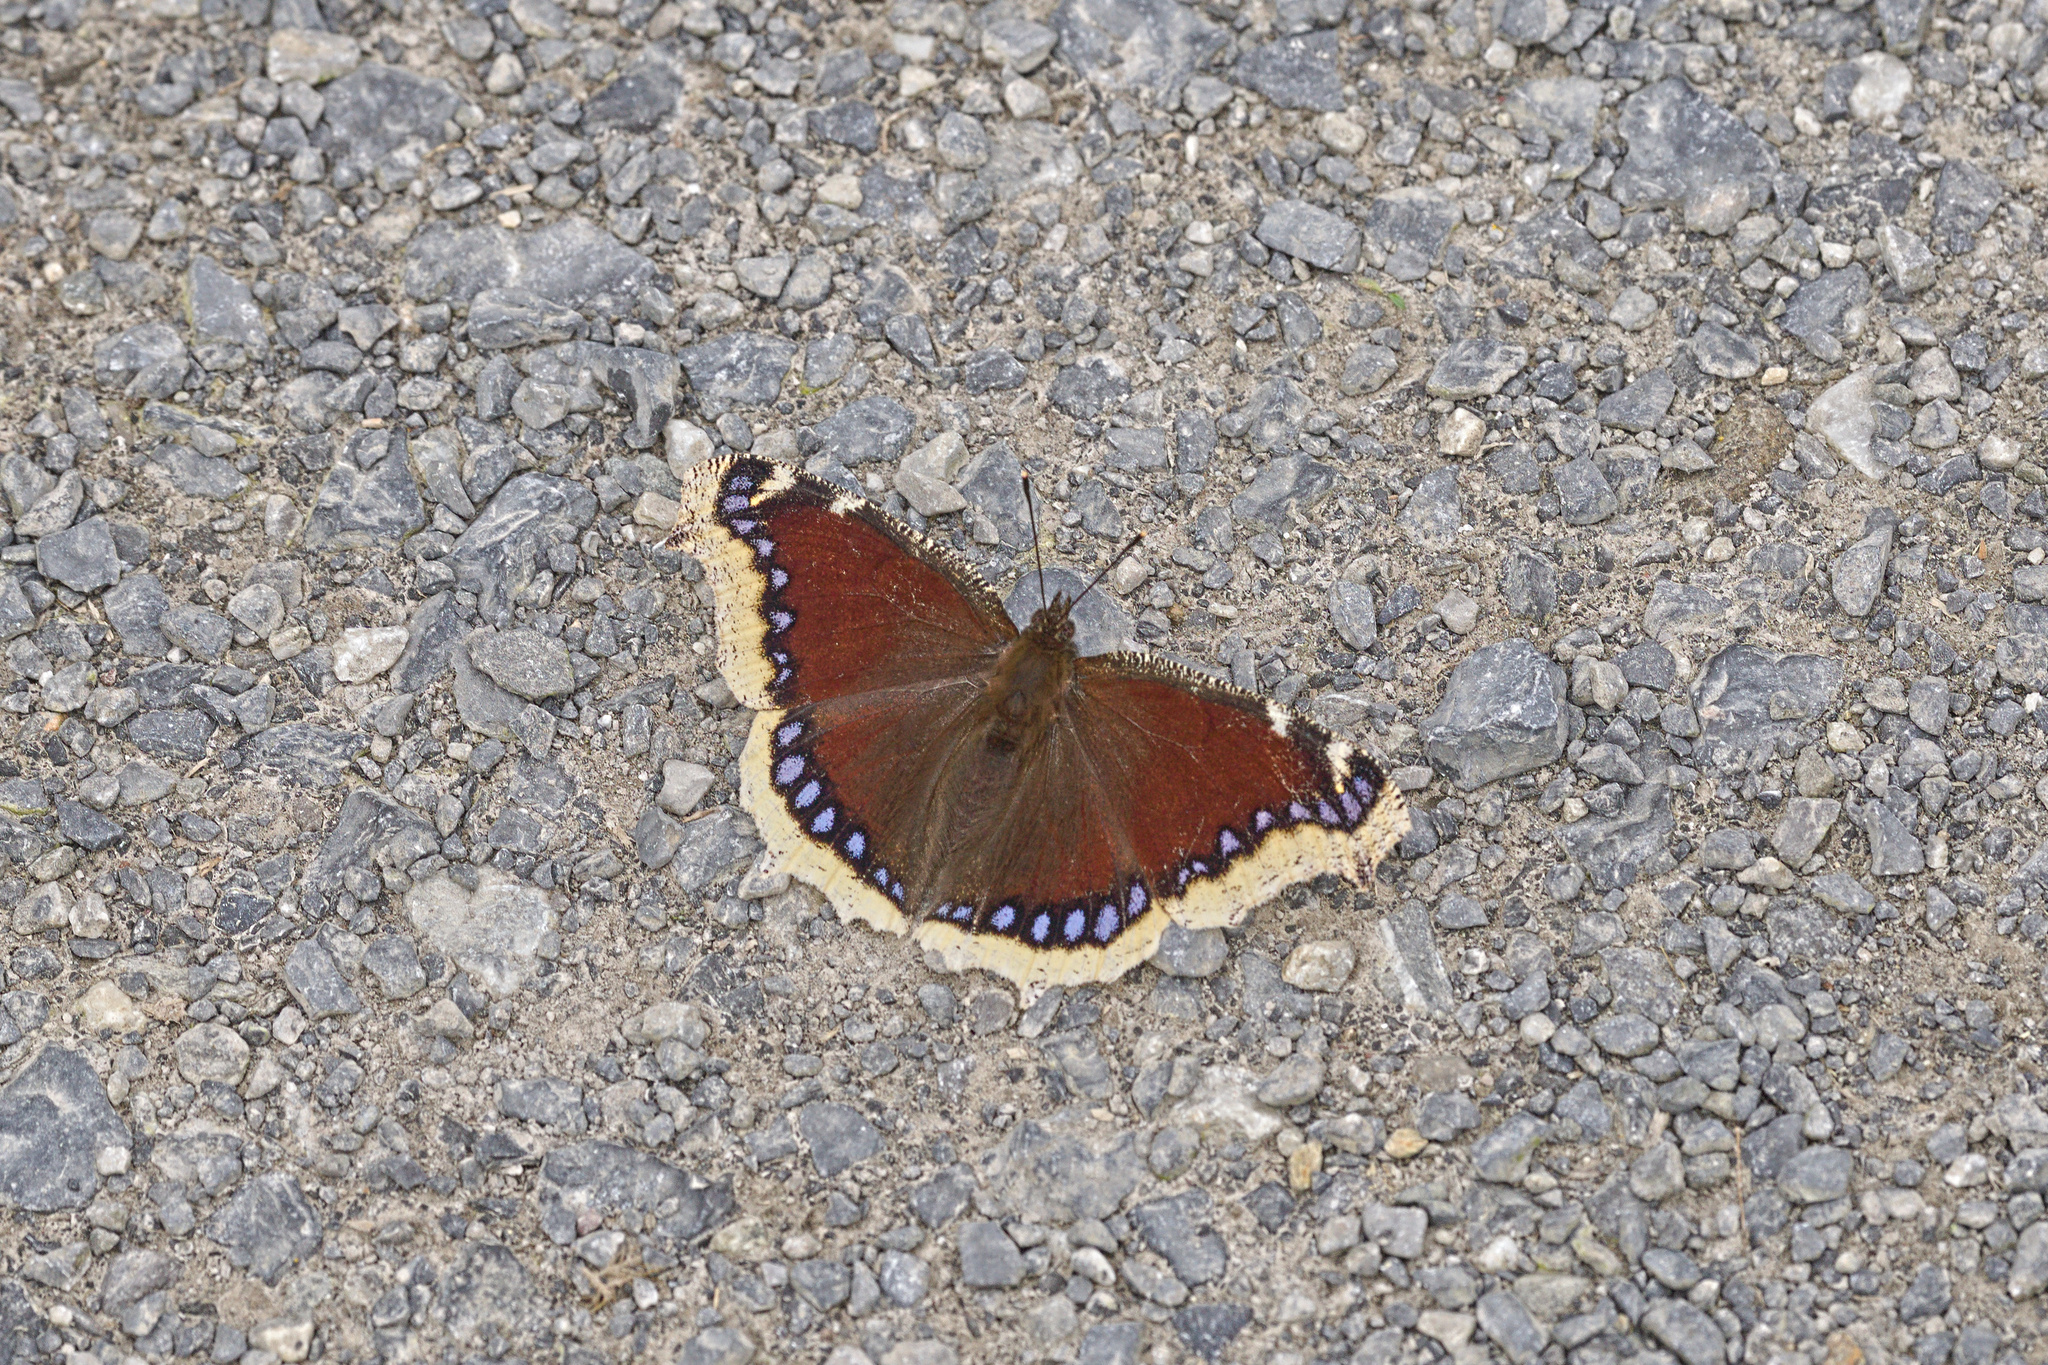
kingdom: Animalia
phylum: Arthropoda
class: Insecta
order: Lepidoptera
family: Nymphalidae
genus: Nymphalis
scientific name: Nymphalis antiopa
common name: Camberwell beauty
